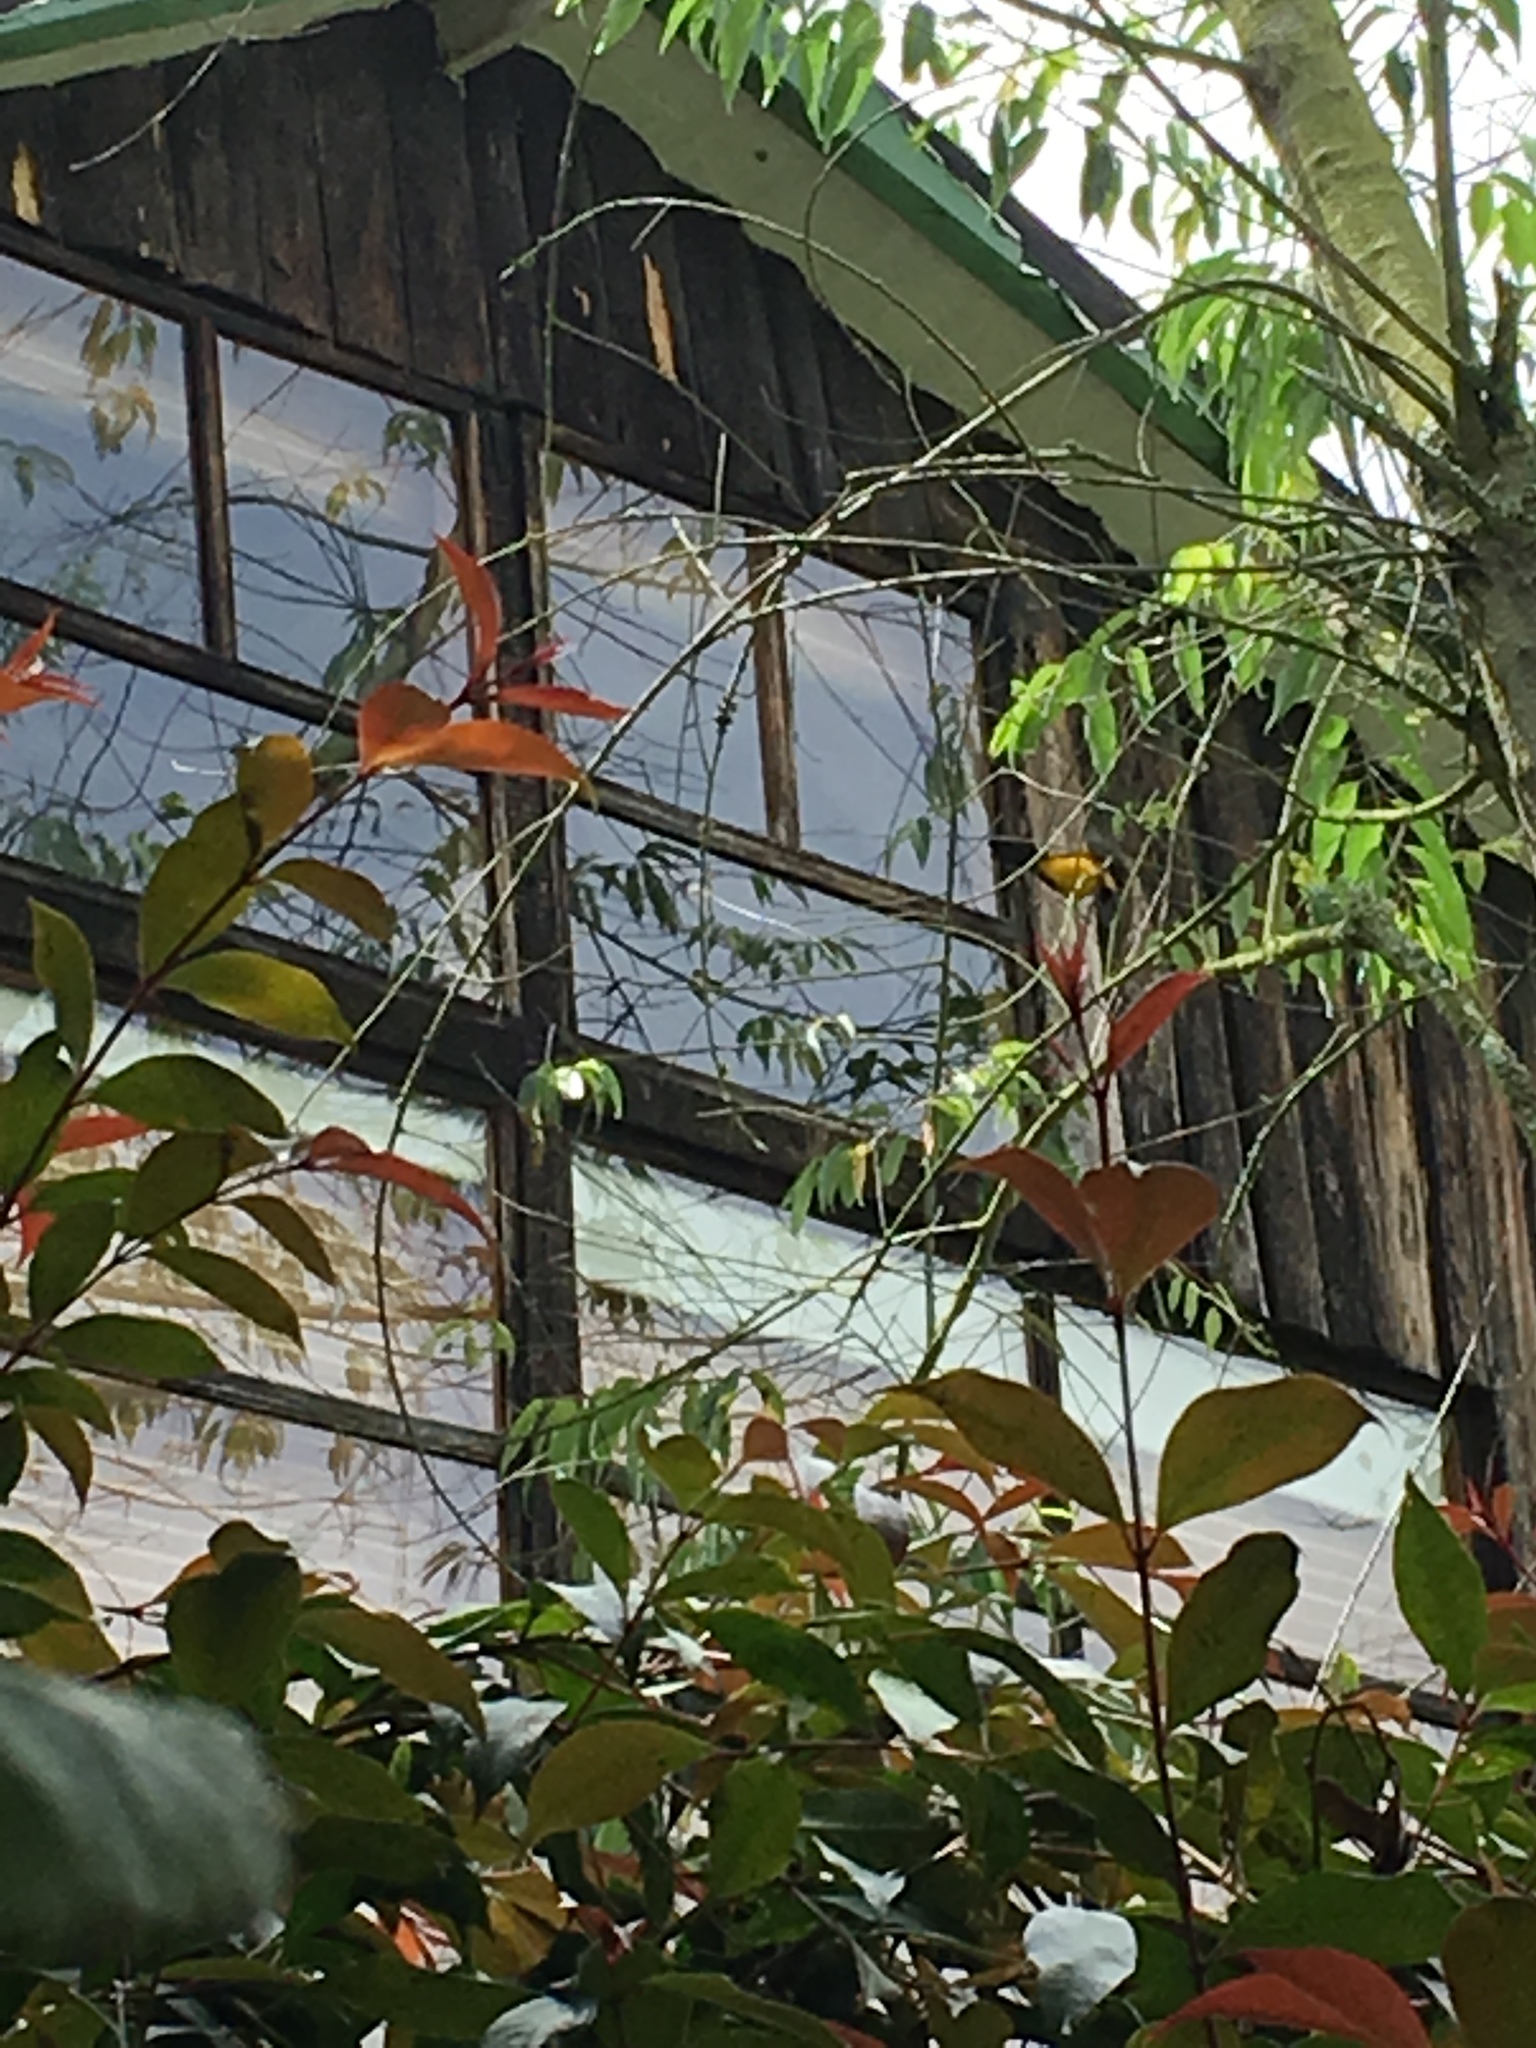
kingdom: Animalia
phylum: Chordata
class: Aves
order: Passeriformes
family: Icteridae
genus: Gymnomystax
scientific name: Gymnomystax mexicanus
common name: Oriole blackbird
